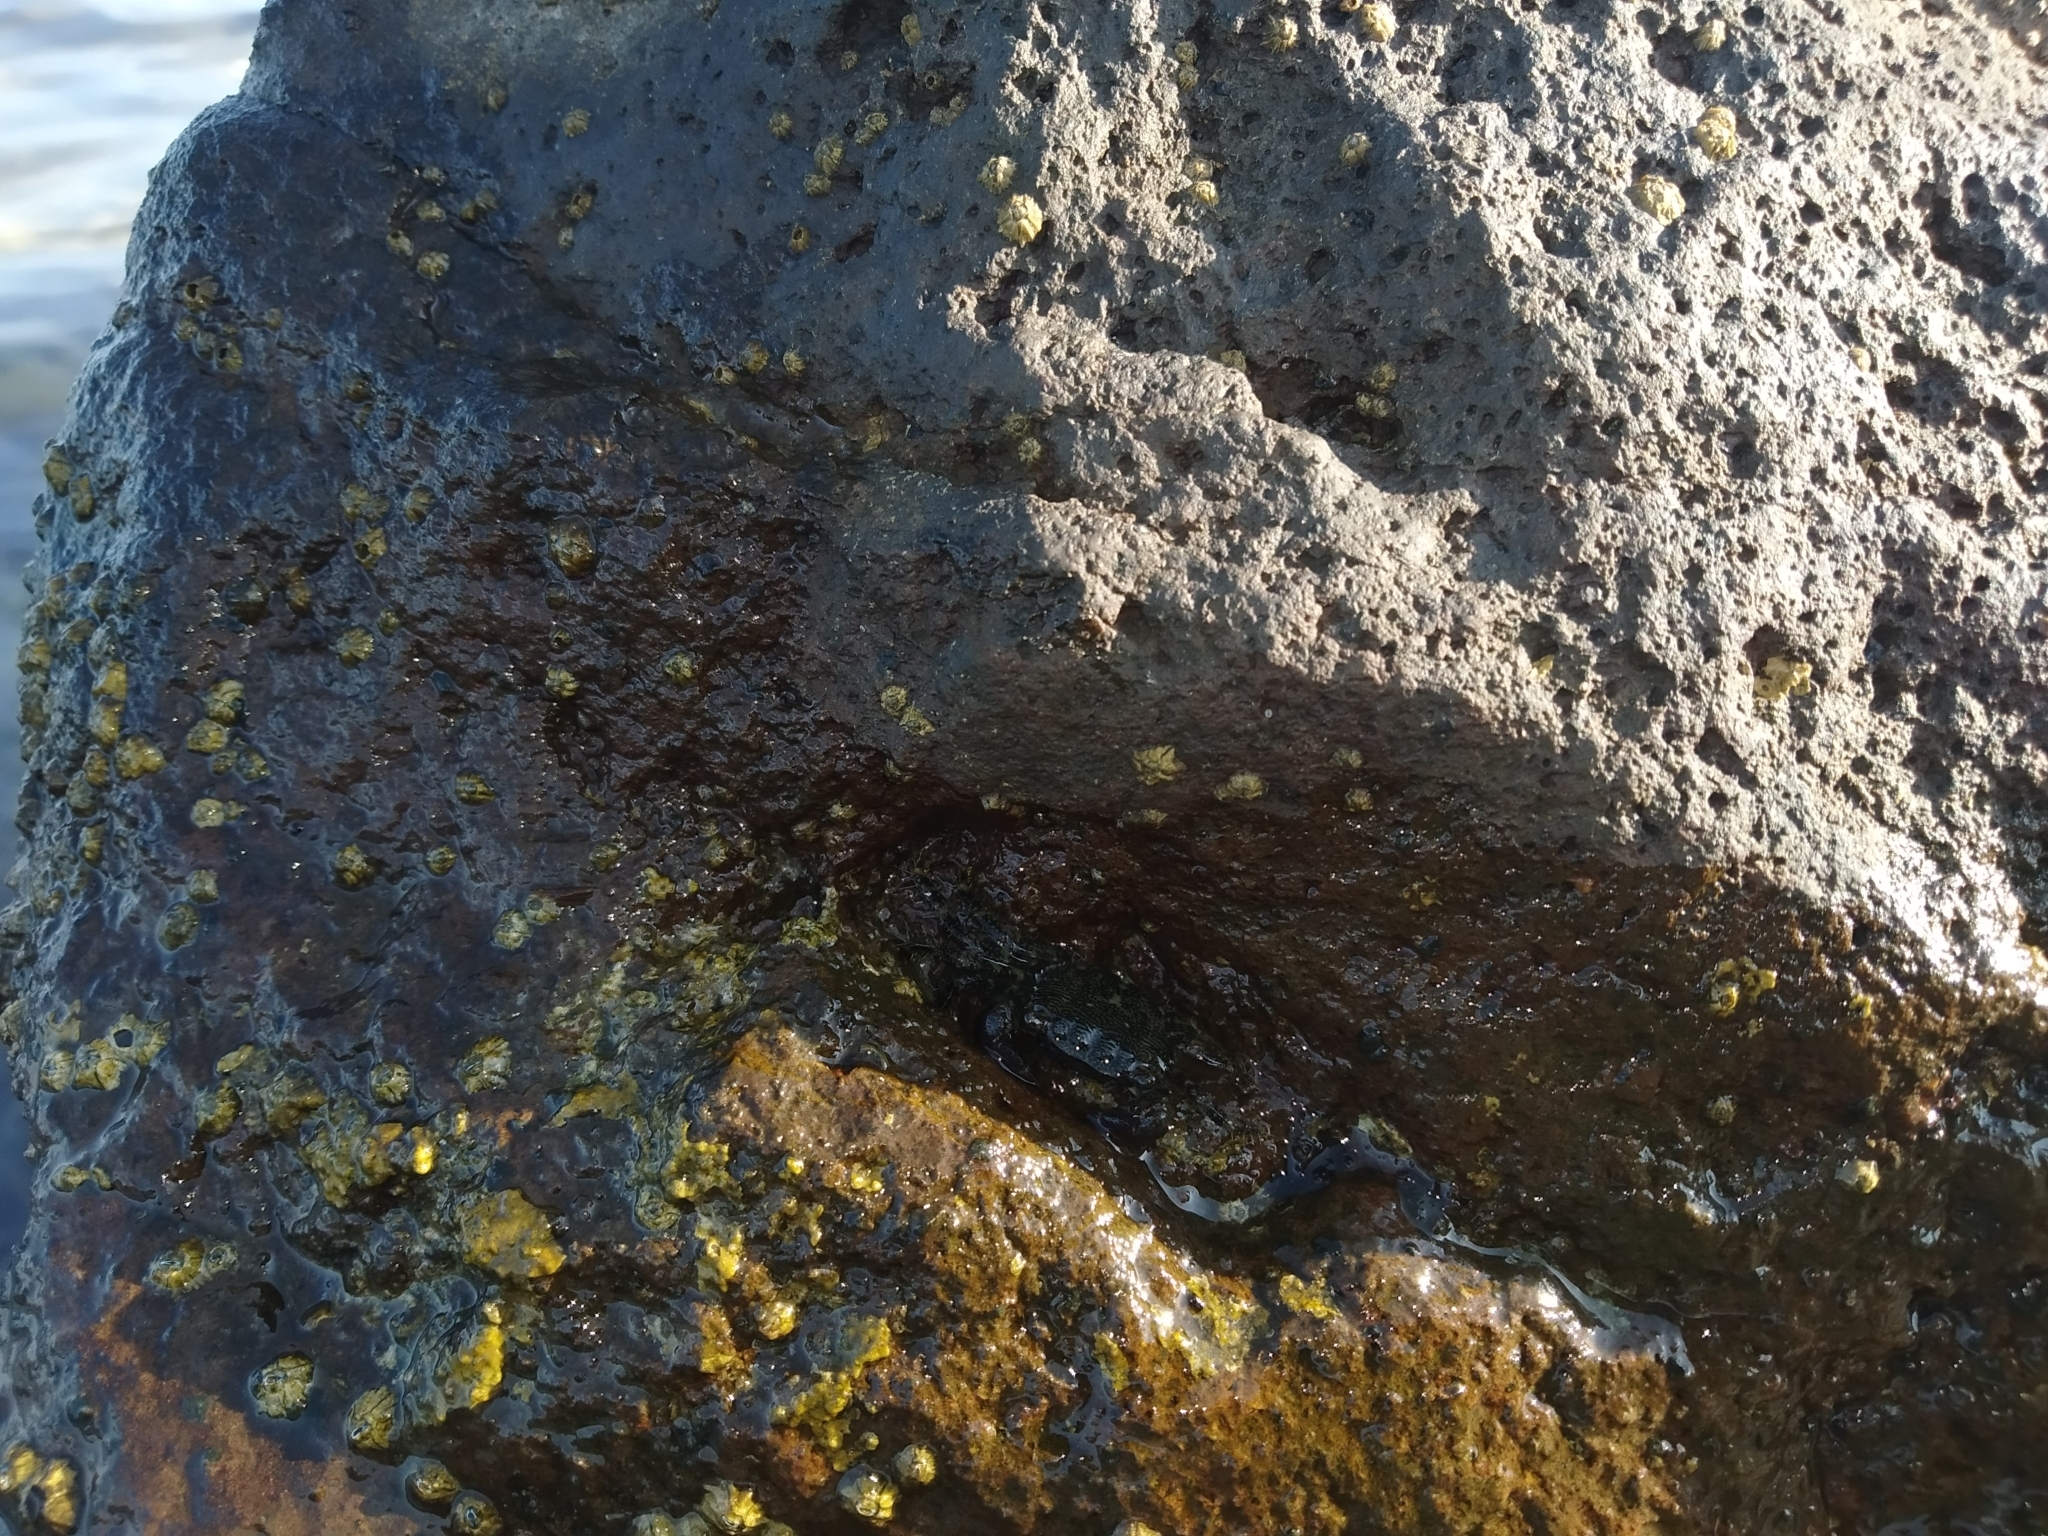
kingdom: Animalia
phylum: Arthropoda
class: Malacostraca
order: Decapoda
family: Grapsidae
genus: Pachygrapsus
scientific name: Pachygrapsus marmoratus
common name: Marbled rock crab
